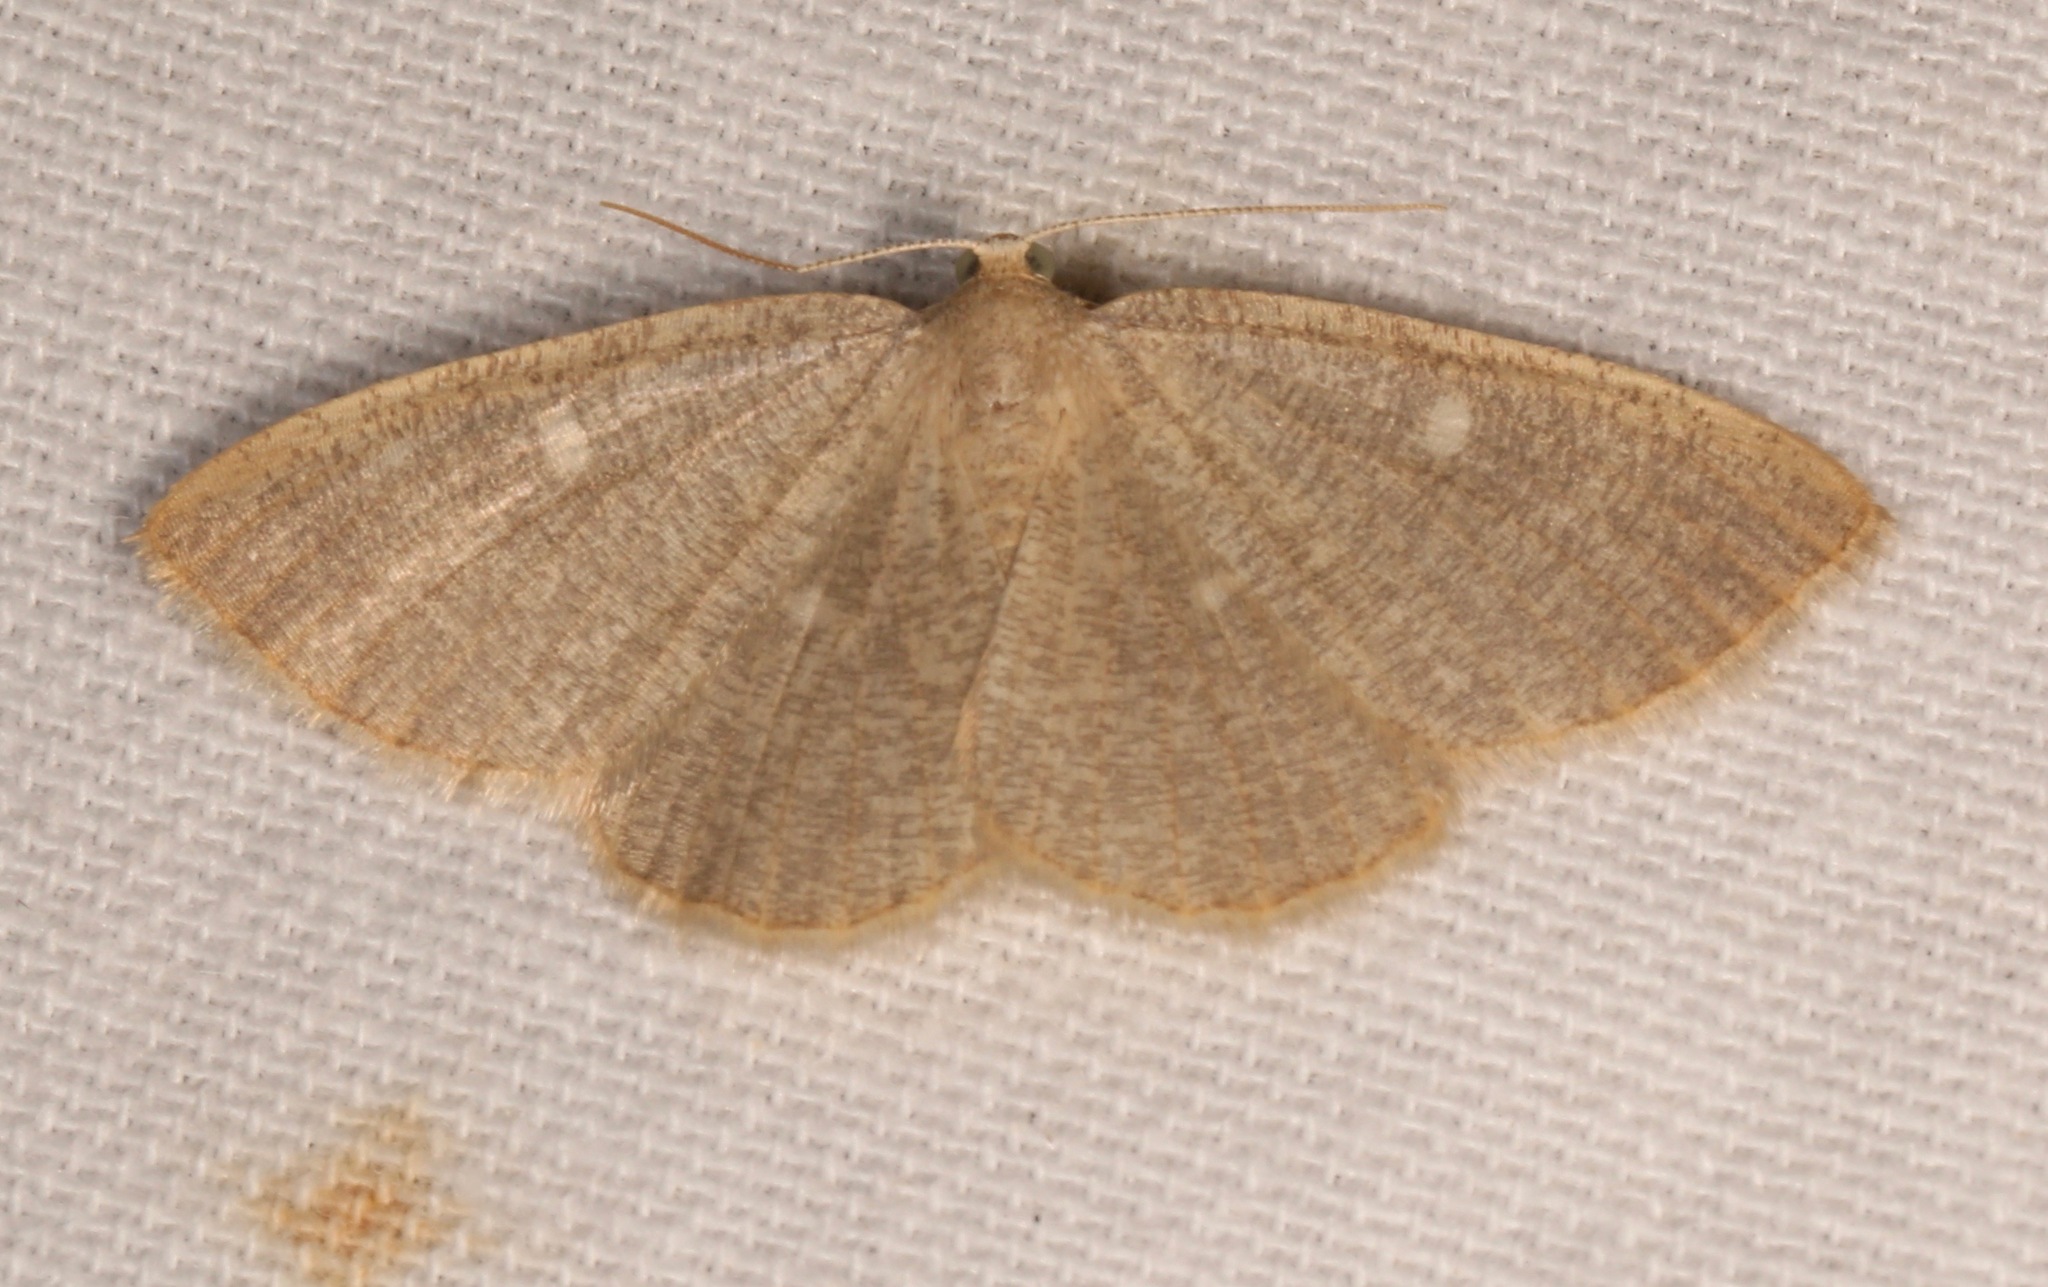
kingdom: Animalia
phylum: Arthropoda
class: Insecta
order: Lepidoptera
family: Geometridae
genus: Pterospoda
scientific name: Pterospoda kunzei
